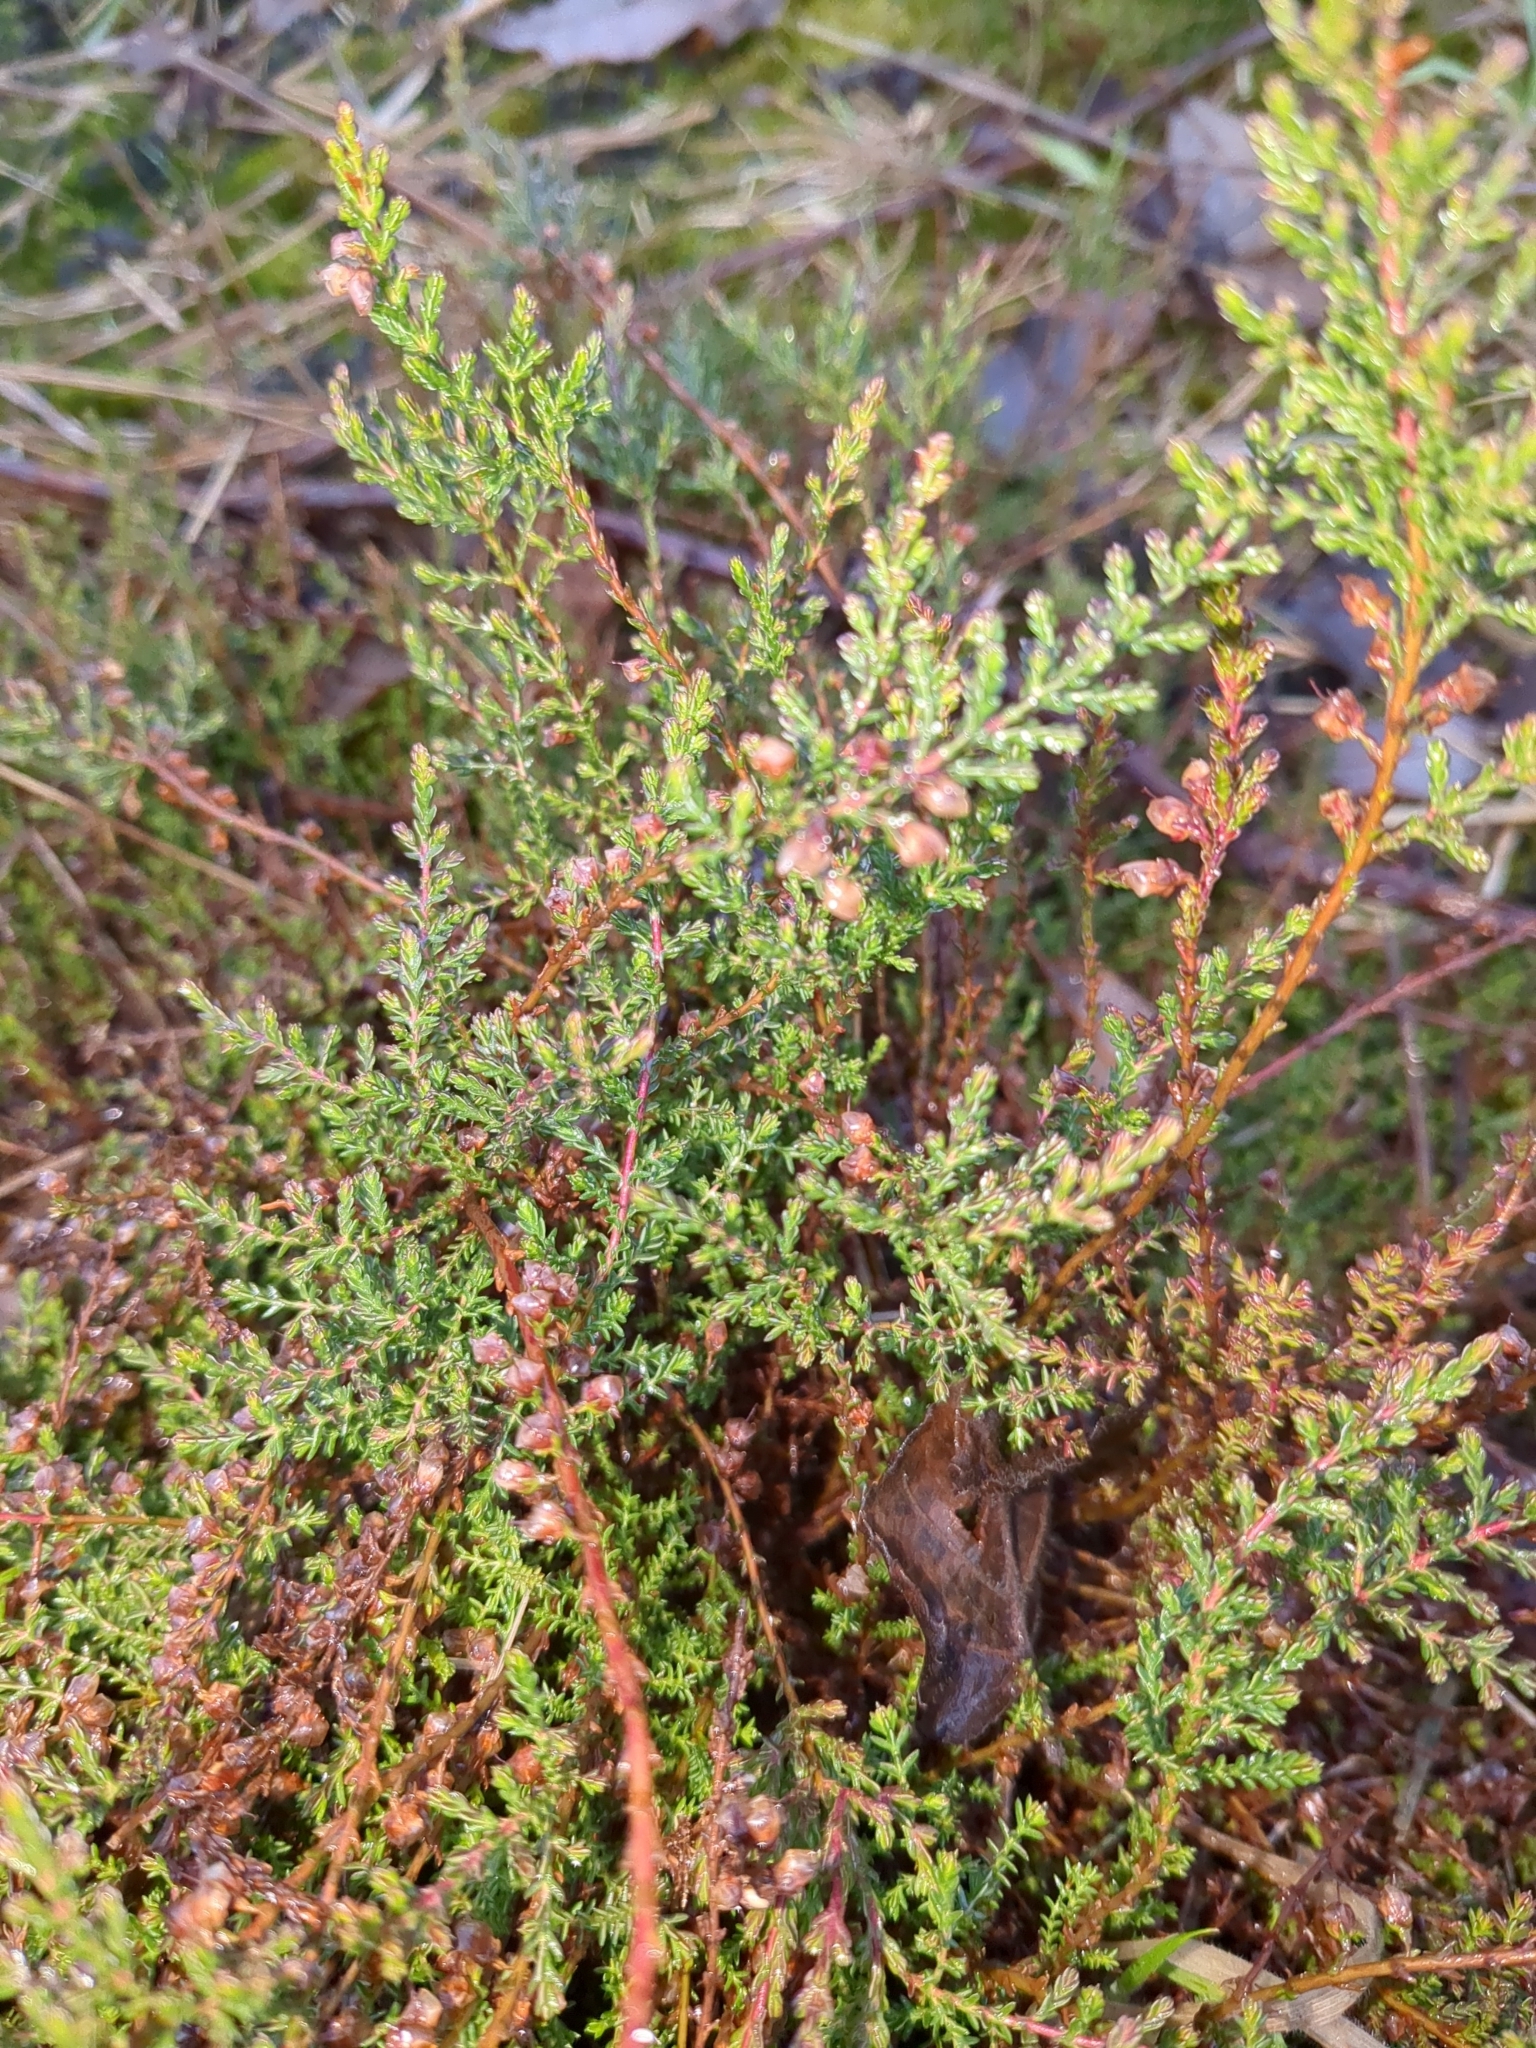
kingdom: Plantae
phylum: Tracheophyta
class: Magnoliopsida
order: Ericales
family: Ericaceae
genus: Calluna
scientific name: Calluna vulgaris
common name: Heather
